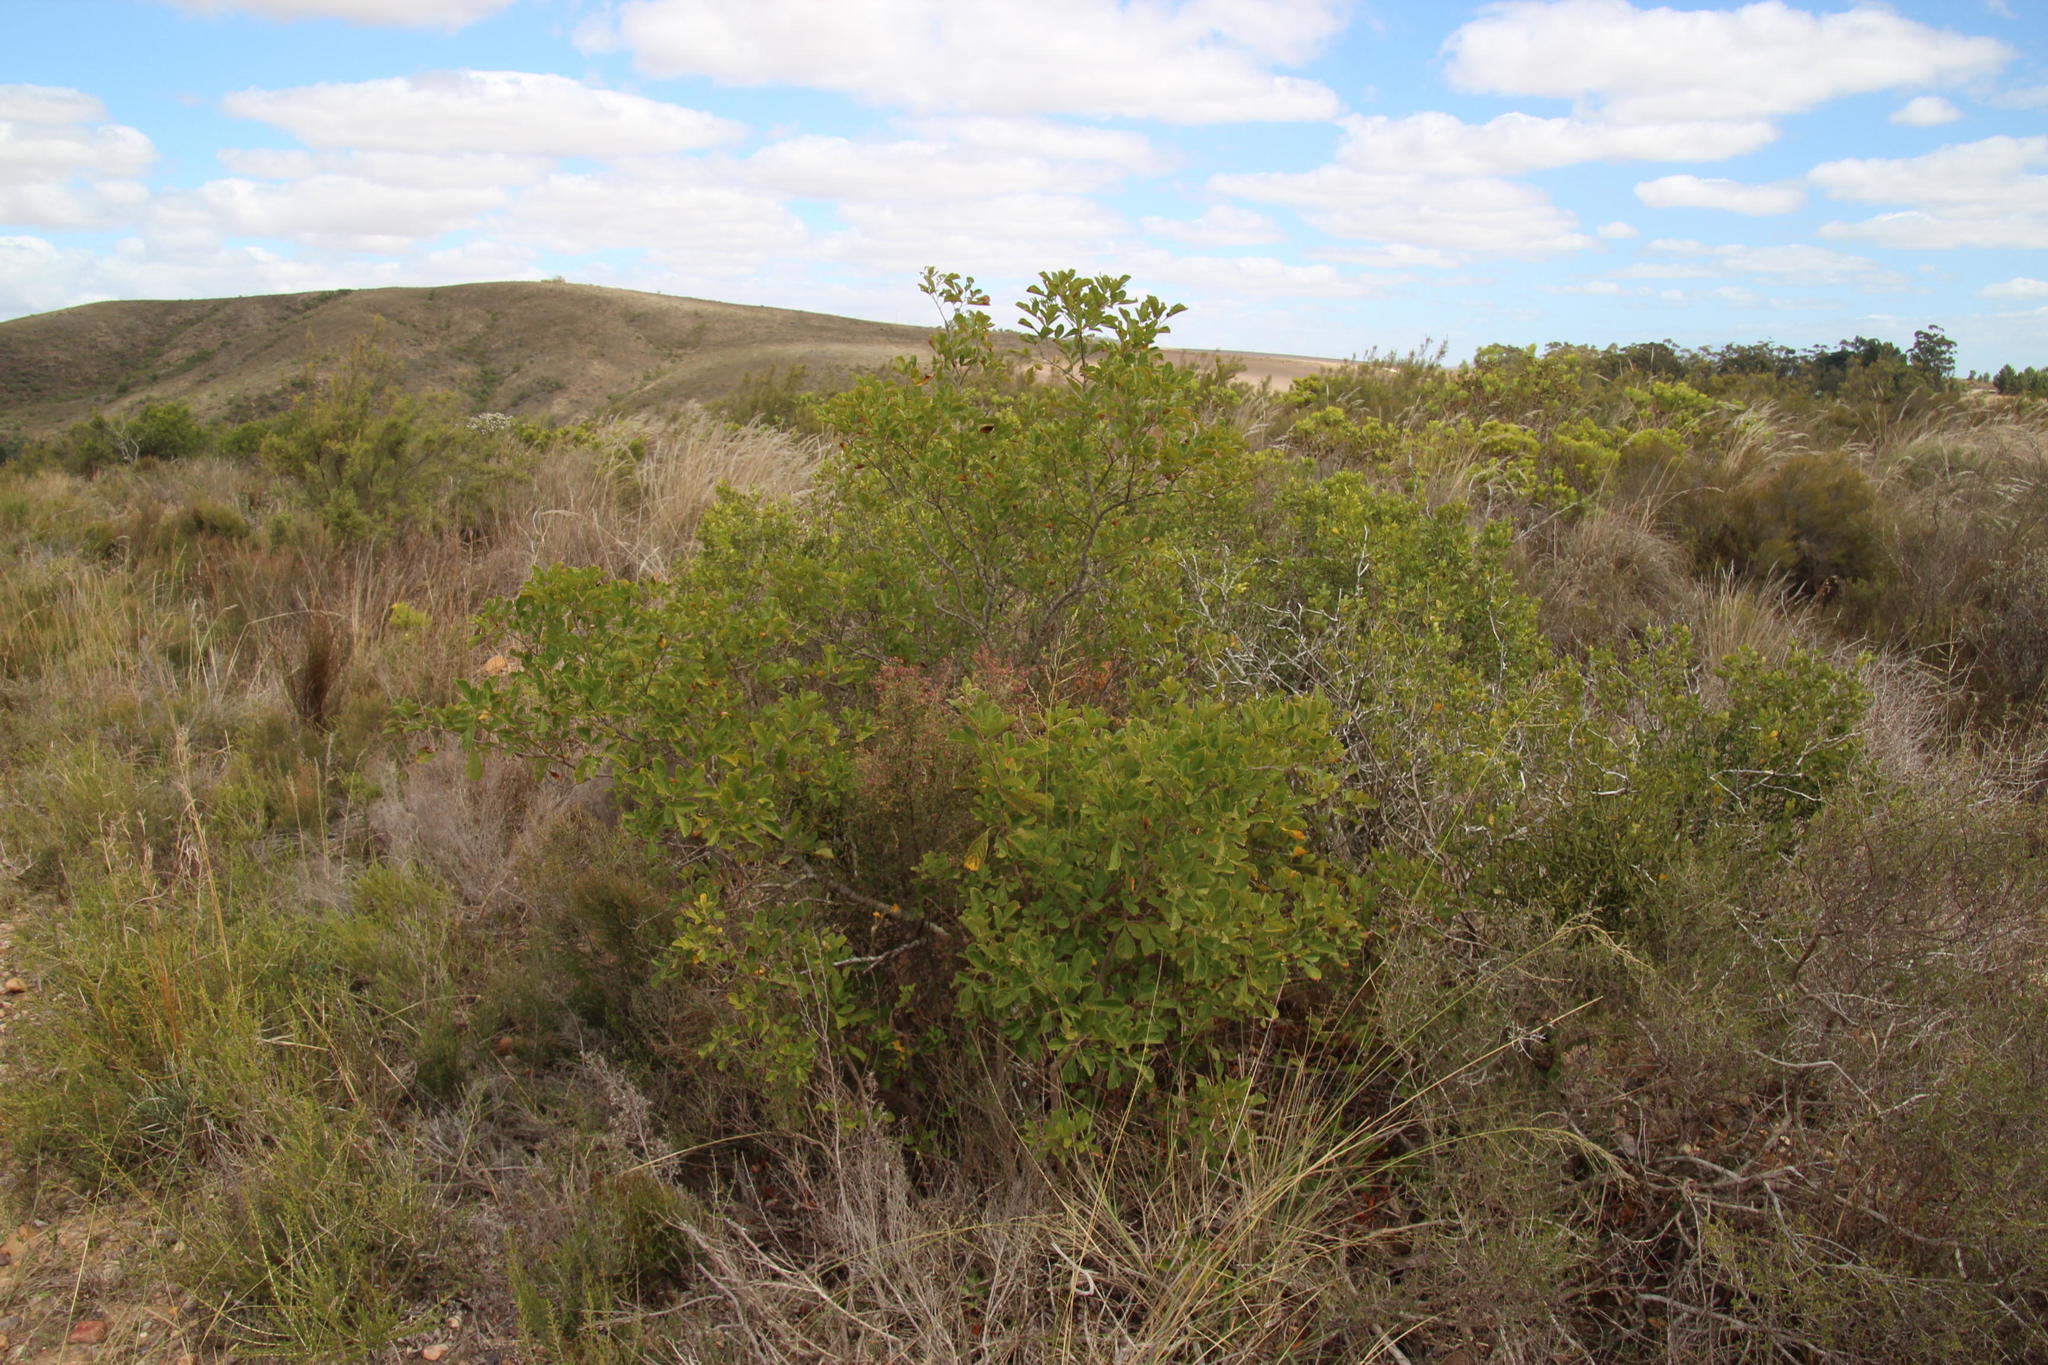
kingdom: Plantae
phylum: Tracheophyta
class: Magnoliopsida
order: Sapindales
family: Anacardiaceae
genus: Searsia
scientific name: Searsia rehmanniana
